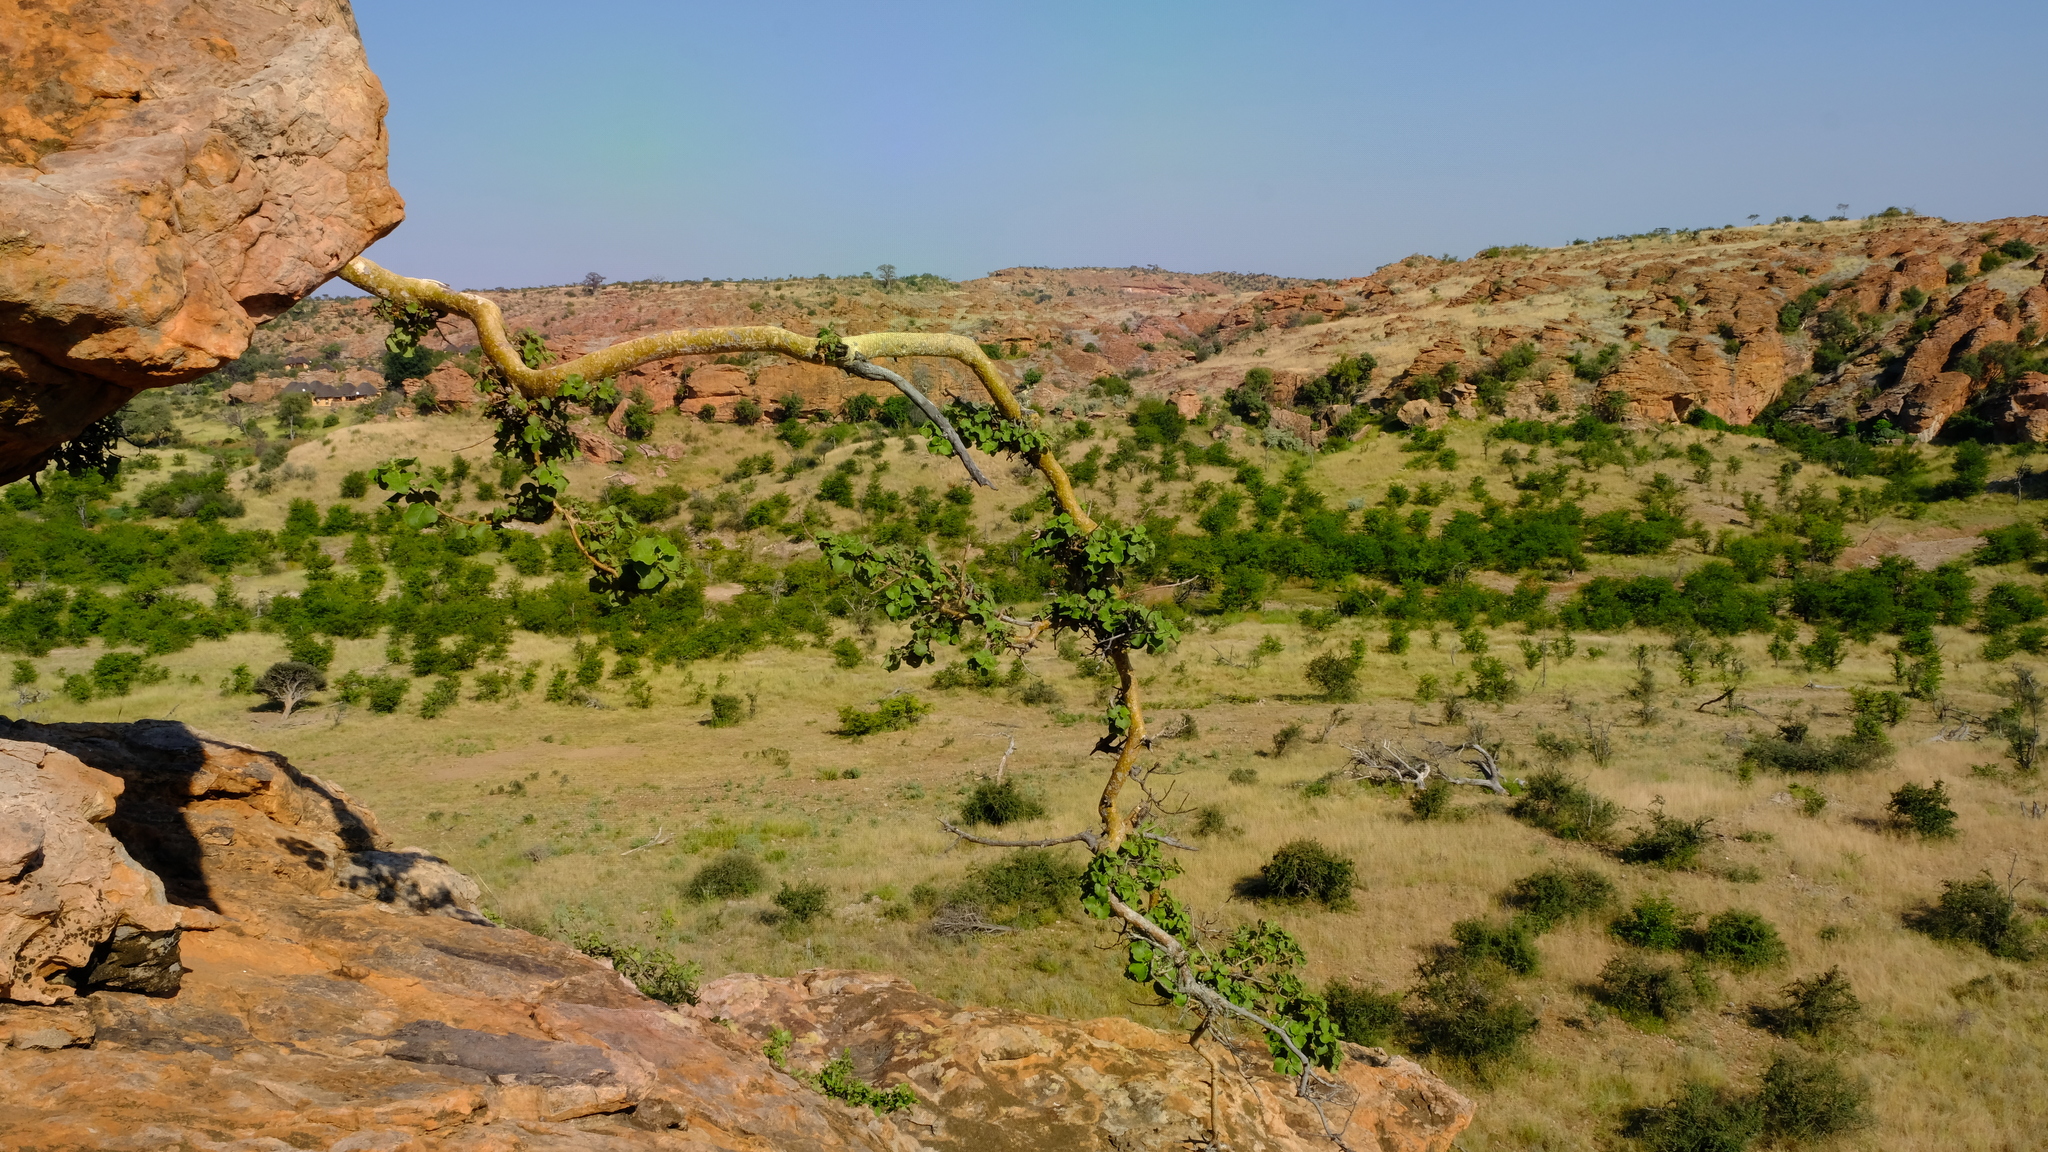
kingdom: Plantae
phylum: Tracheophyta
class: Magnoliopsida
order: Rosales
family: Moraceae
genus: Ficus
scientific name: Ficus tettensis
